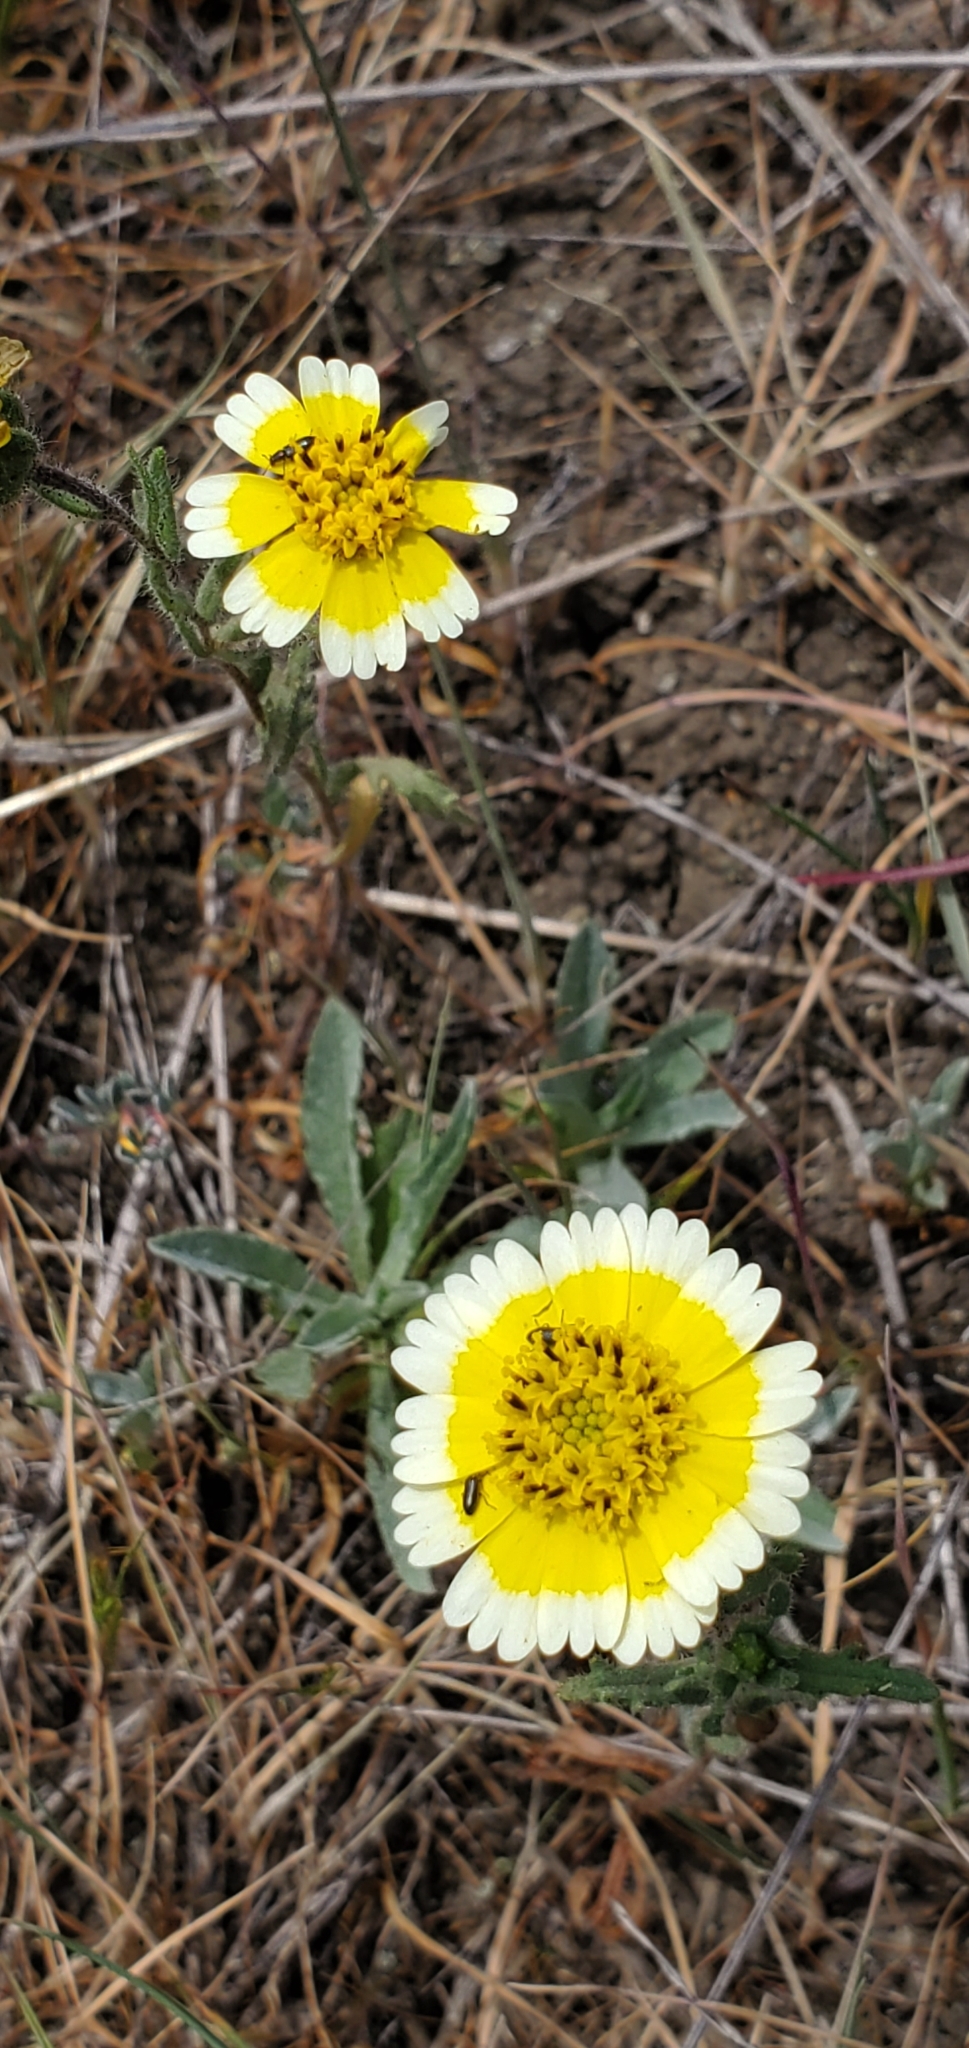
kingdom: Plantae
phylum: Tracheophyta
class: Magnoliopsida
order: Asterales
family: Asteraceae
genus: Layia
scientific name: Layia gaillardioides
